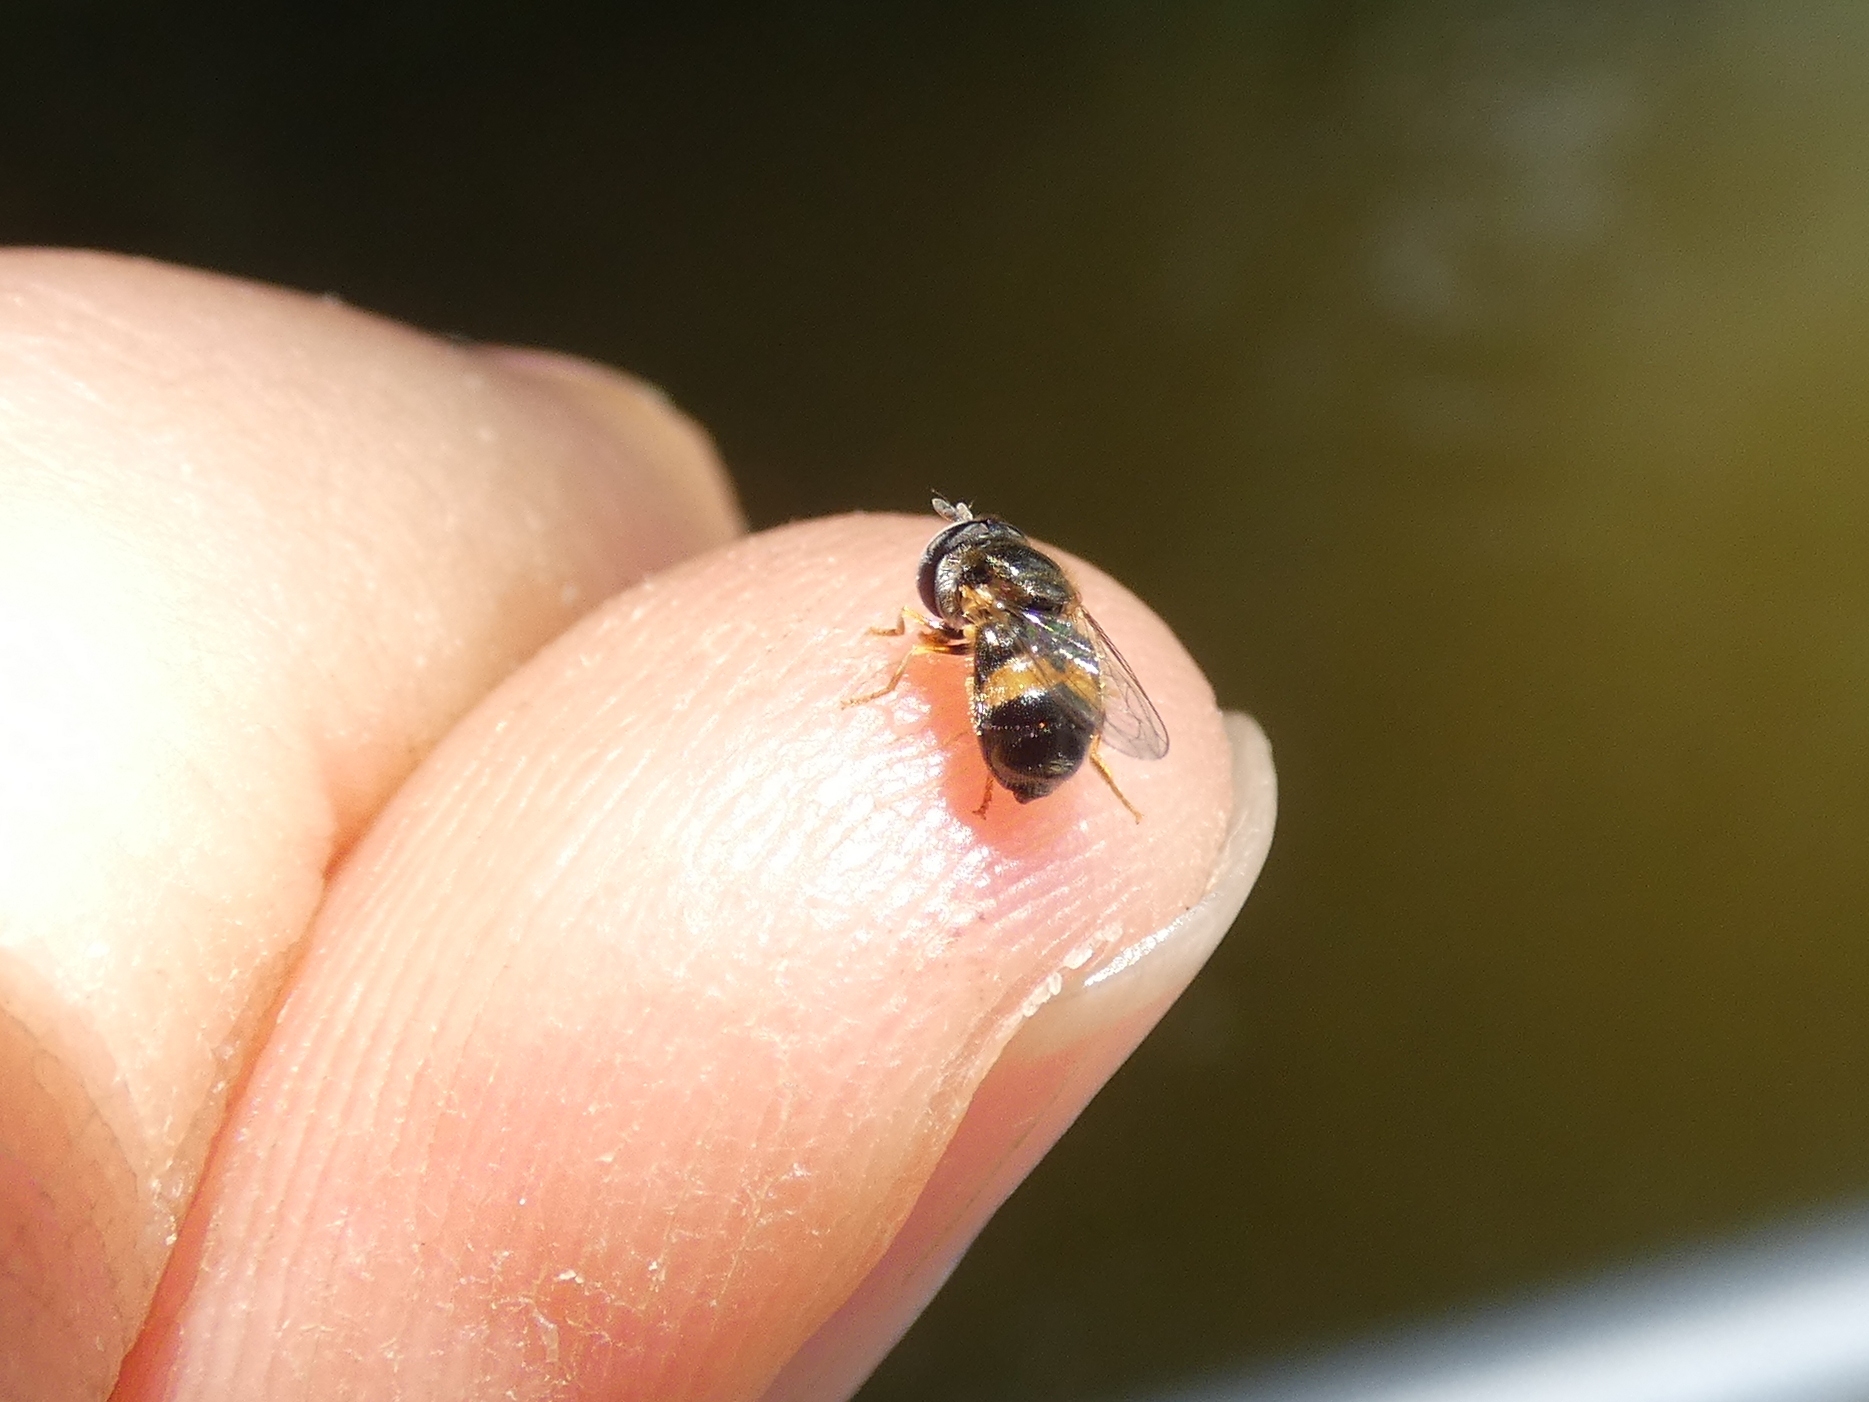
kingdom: Animalia
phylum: Arthropoda
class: Insecta
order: Diptera
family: Syrphidae
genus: Paragus
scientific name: Paragus borbonicus
